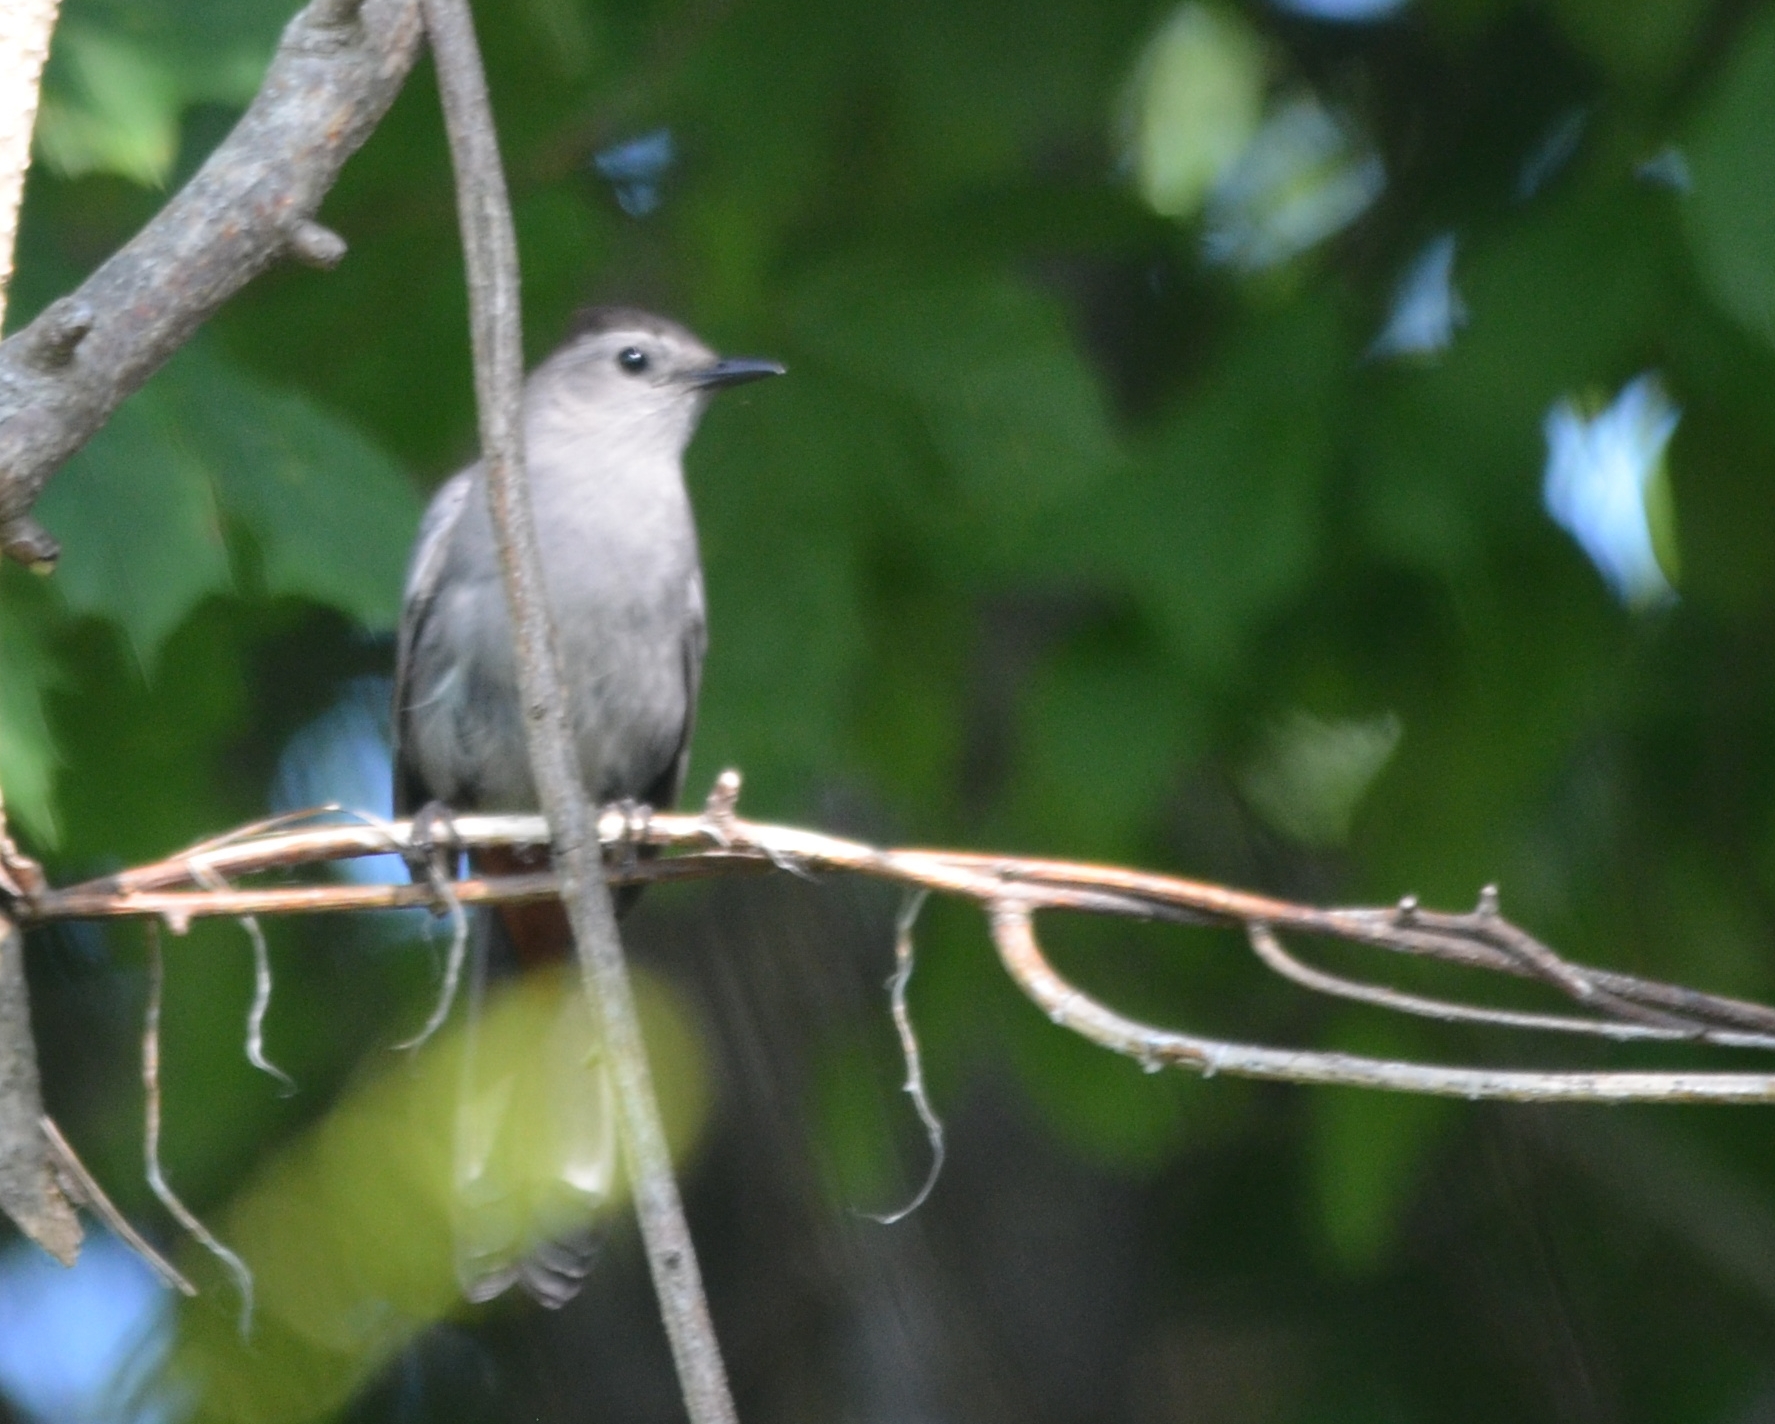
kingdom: Animalia
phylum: Chordata
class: Aves
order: Passeriformes
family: Mimidae
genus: Dumetella
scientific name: Dumetella carolinensis
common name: Gray catbird
